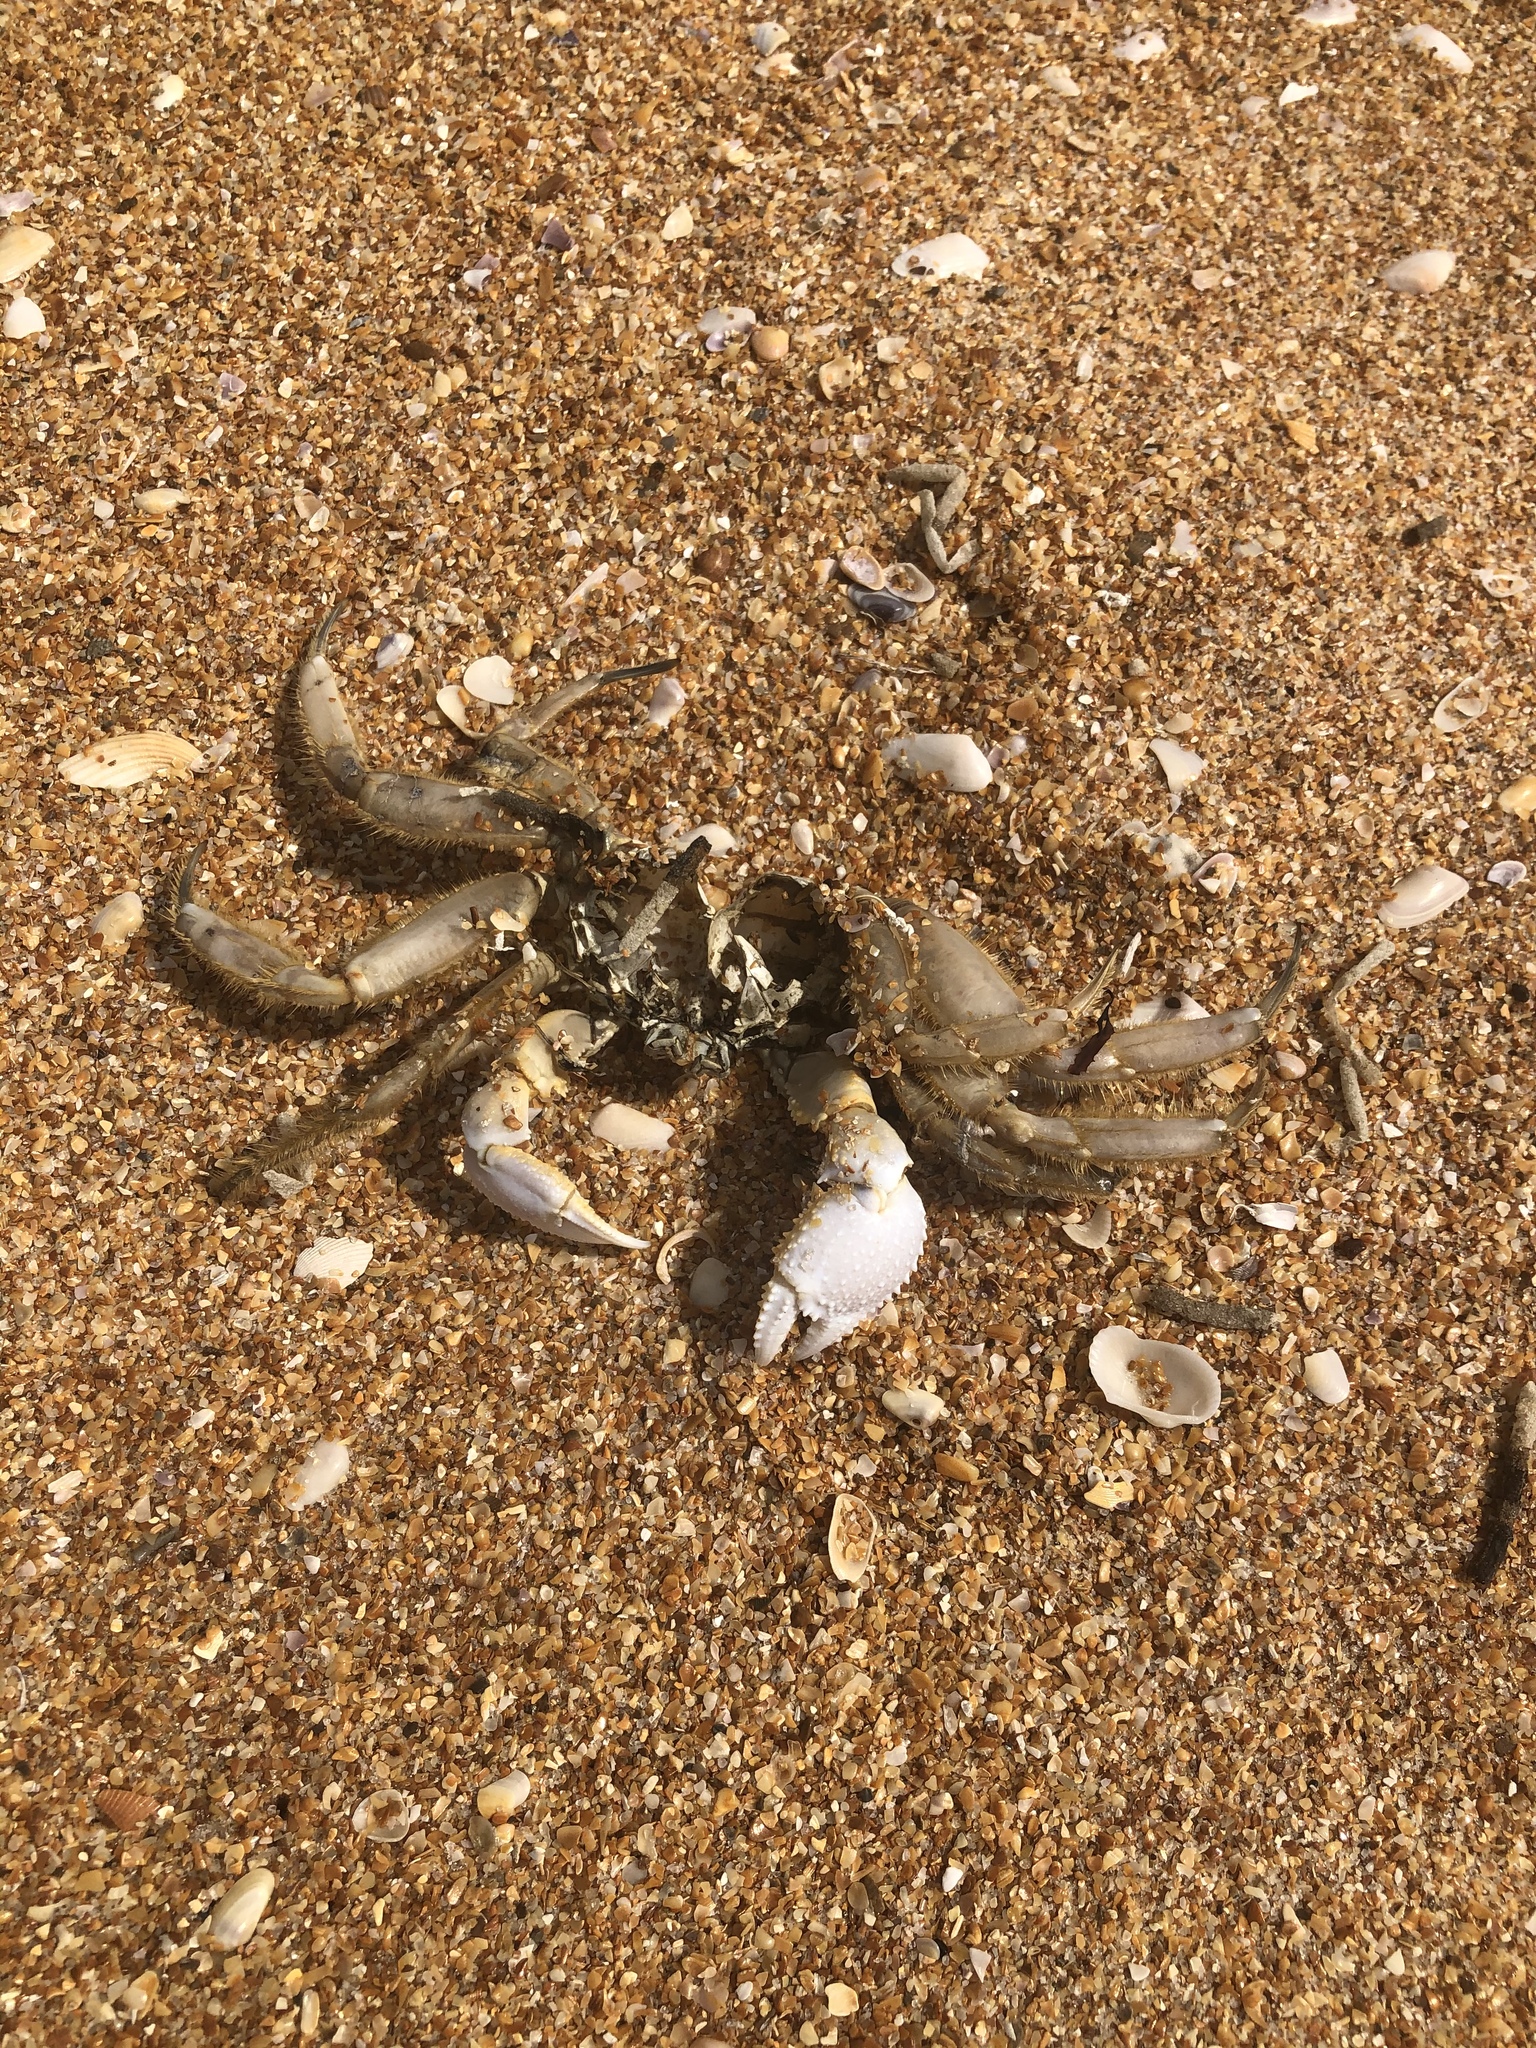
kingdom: Animalia
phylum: Arthropoda
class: Malacostraca
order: Decapoda
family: Ocypodidae
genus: Ocypode
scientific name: Ocypode quadrata
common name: Ghost crab
